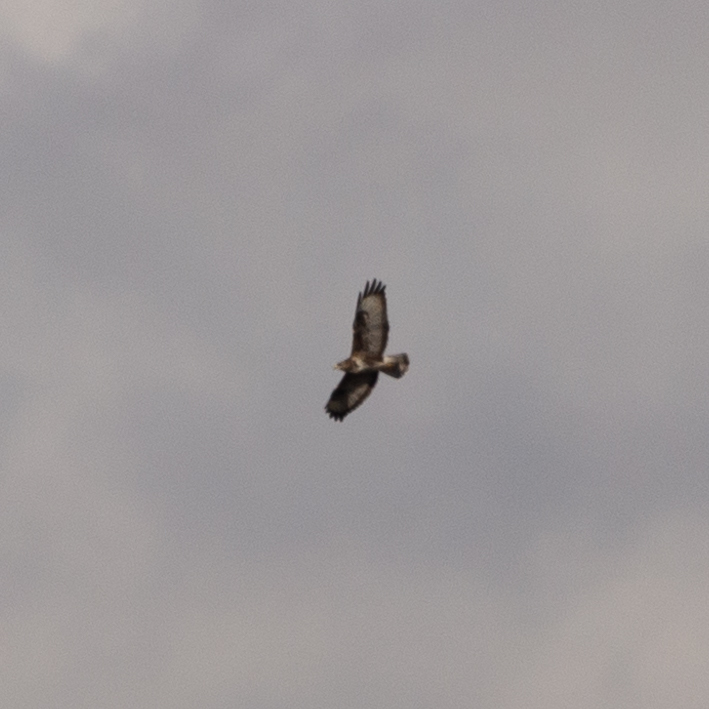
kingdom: Animalia
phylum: Chordata
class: Aves
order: Accipitriformes
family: Accipitridae
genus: Buteo
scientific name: Buteo buteo
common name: Common buzzard
